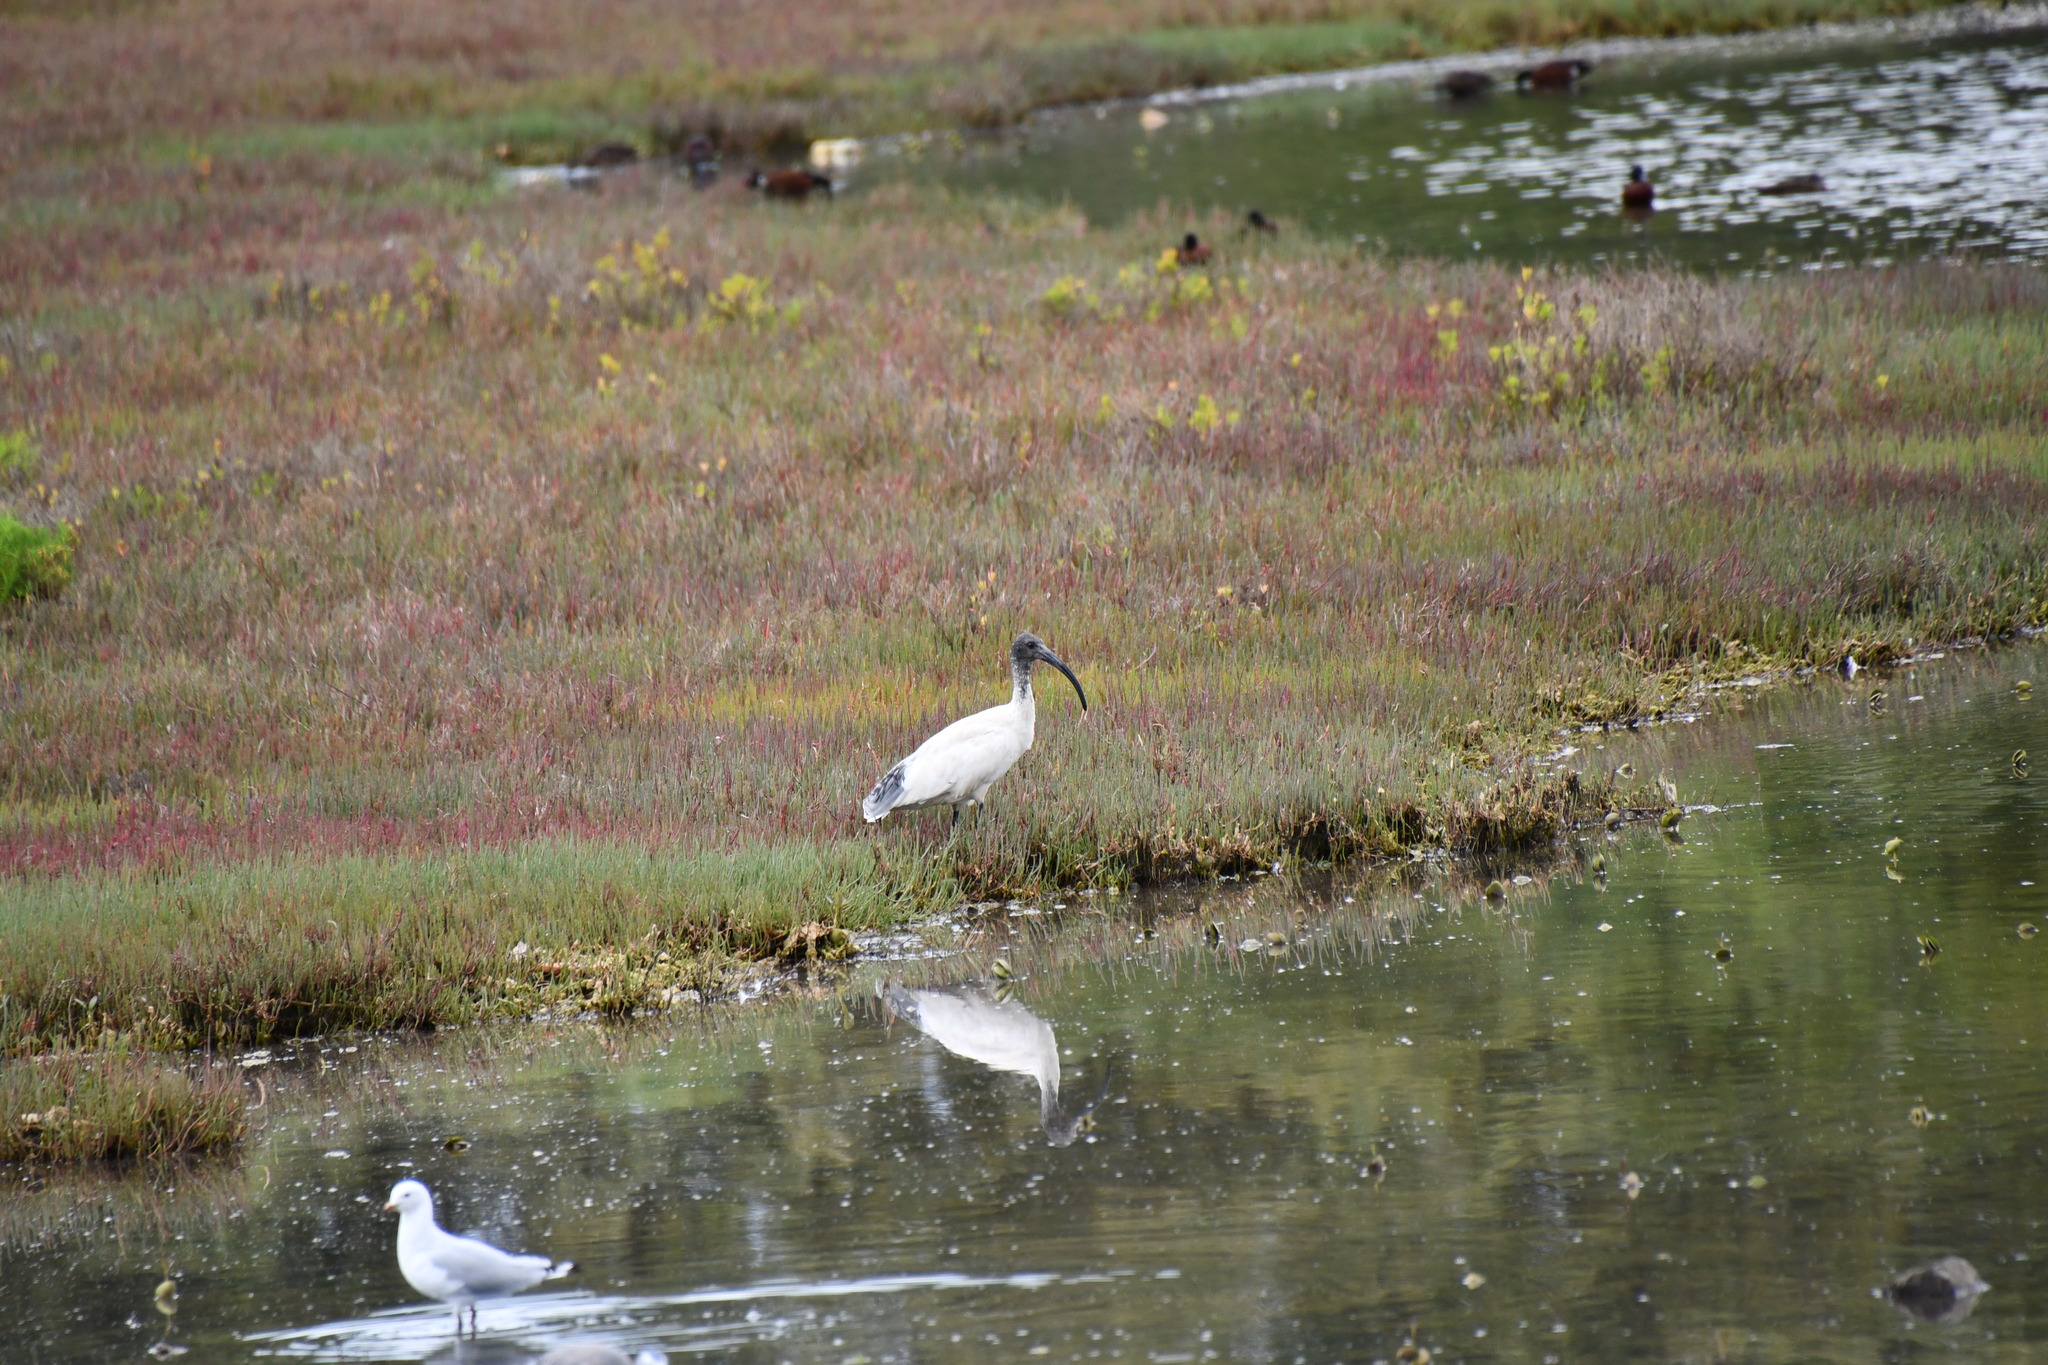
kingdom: Animalia
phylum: Chordata
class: Aves
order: Pelecaniformes
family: Threskiornithidae
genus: Threskiornis
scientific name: Threskiornis molucca
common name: Australian white ibis
